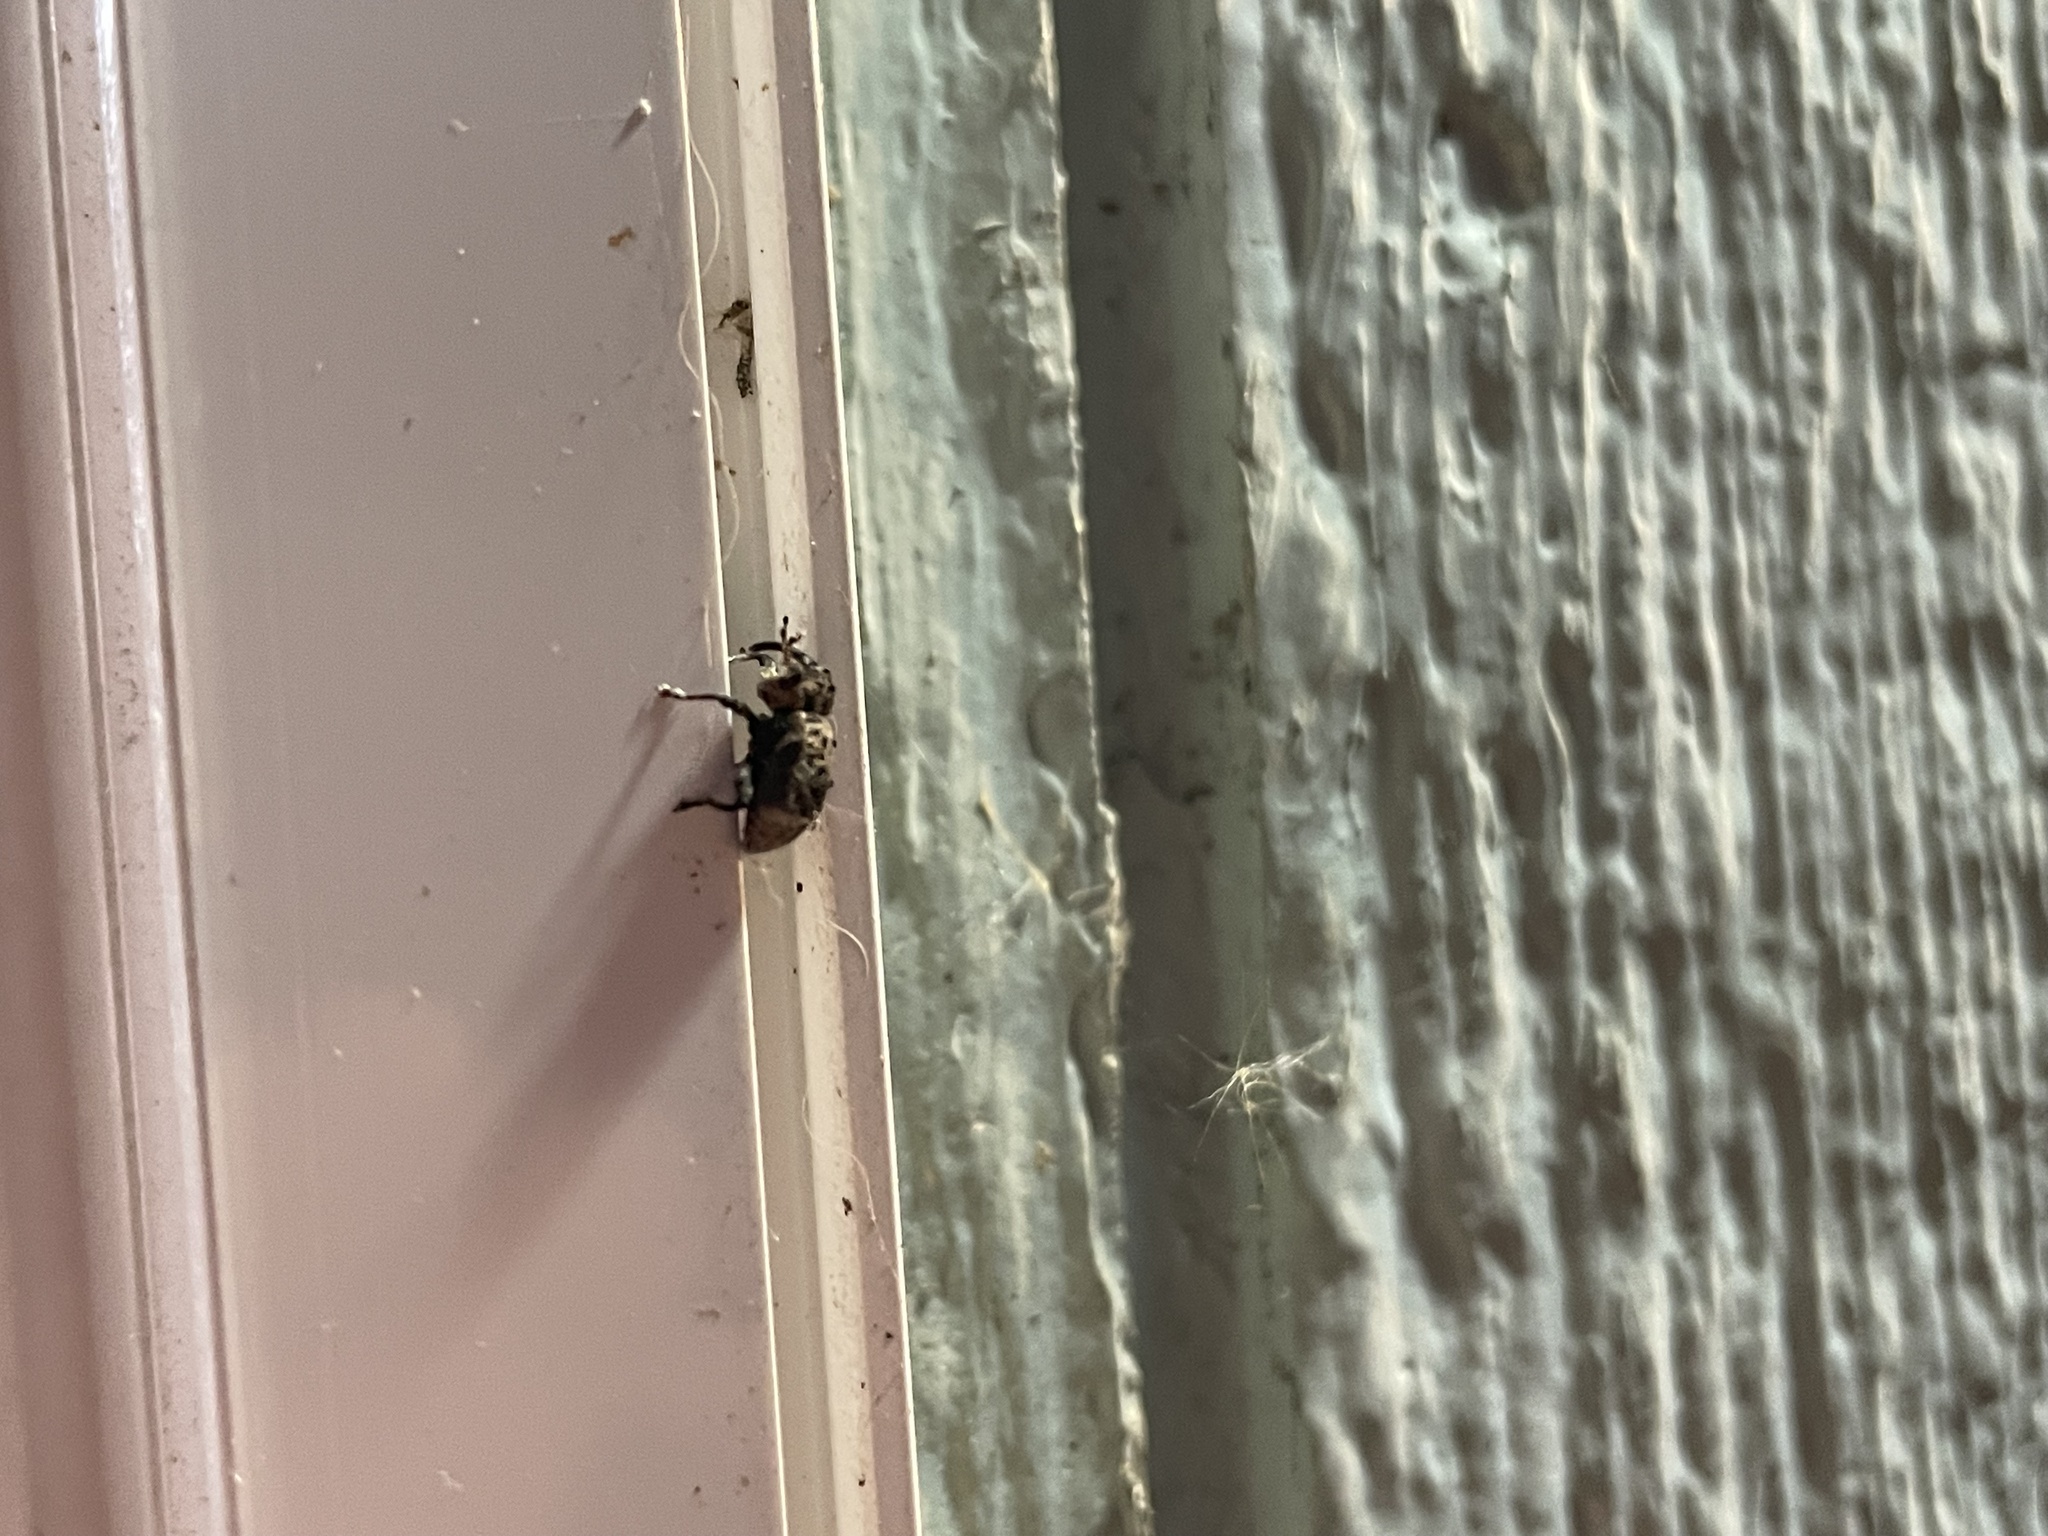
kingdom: Animalia
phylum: Arthropoda
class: Insecta
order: Coleoptera
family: Curculionidae
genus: Cryptorhynchus
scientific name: Cryptorhynchus lapathi
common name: Weevil
